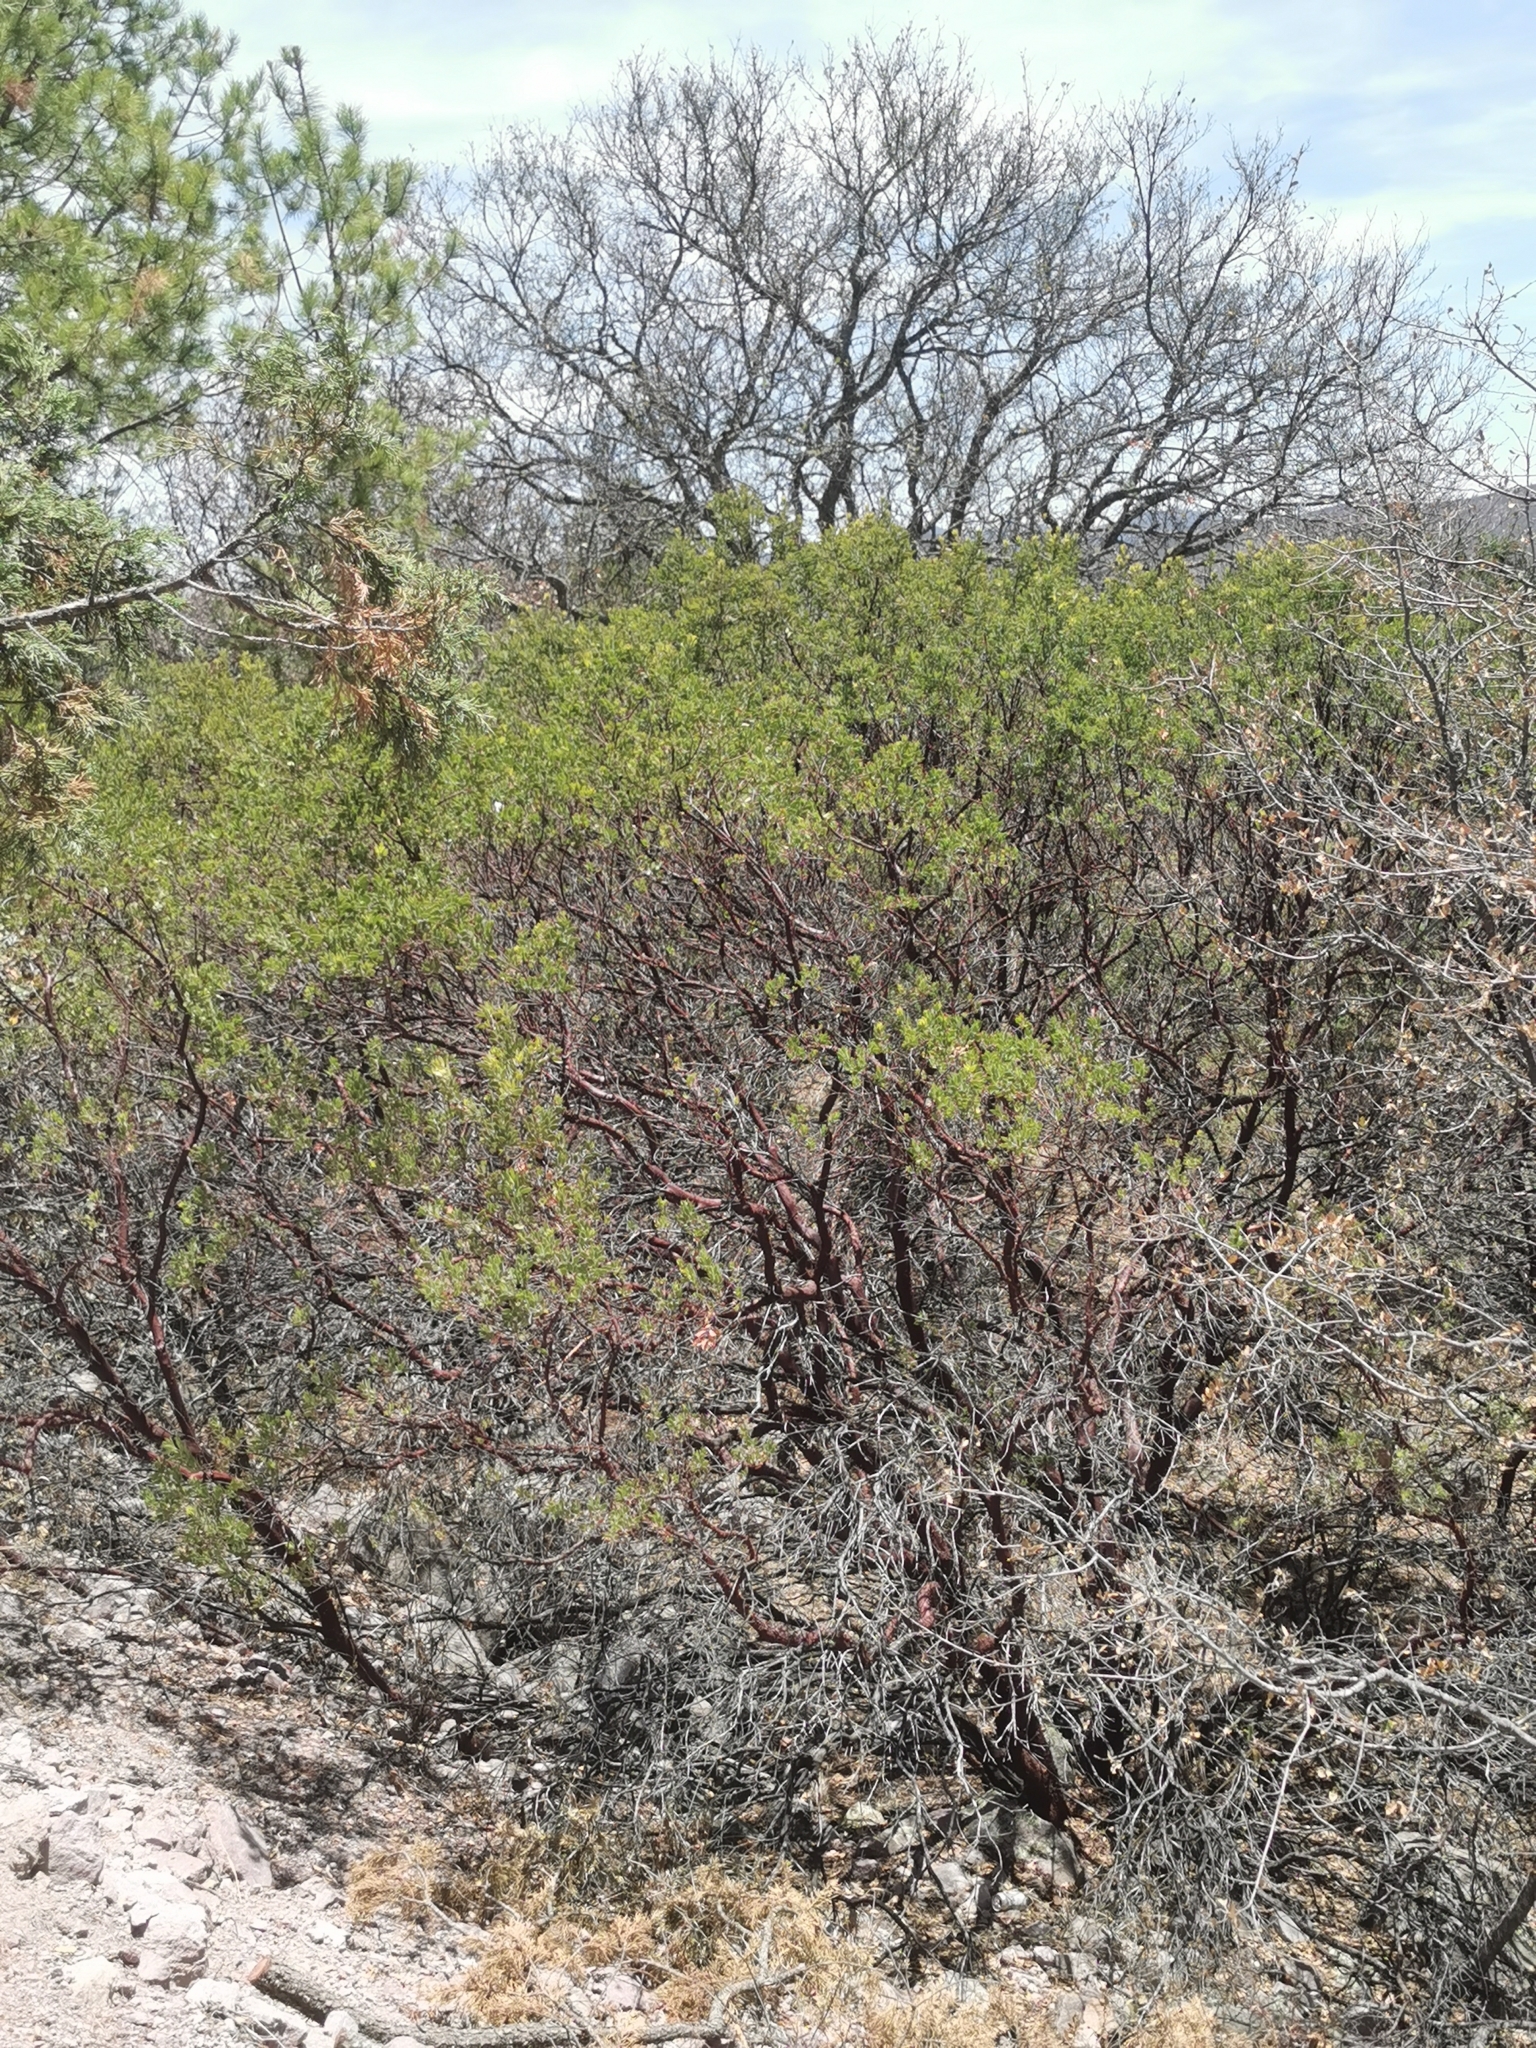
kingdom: Plantae
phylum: Tracheophyta
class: Magnoliopsida
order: Ericales
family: Ericaceae
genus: Arctostaphylos
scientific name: Arctostaphylos pungens
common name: Mexican manzanita
